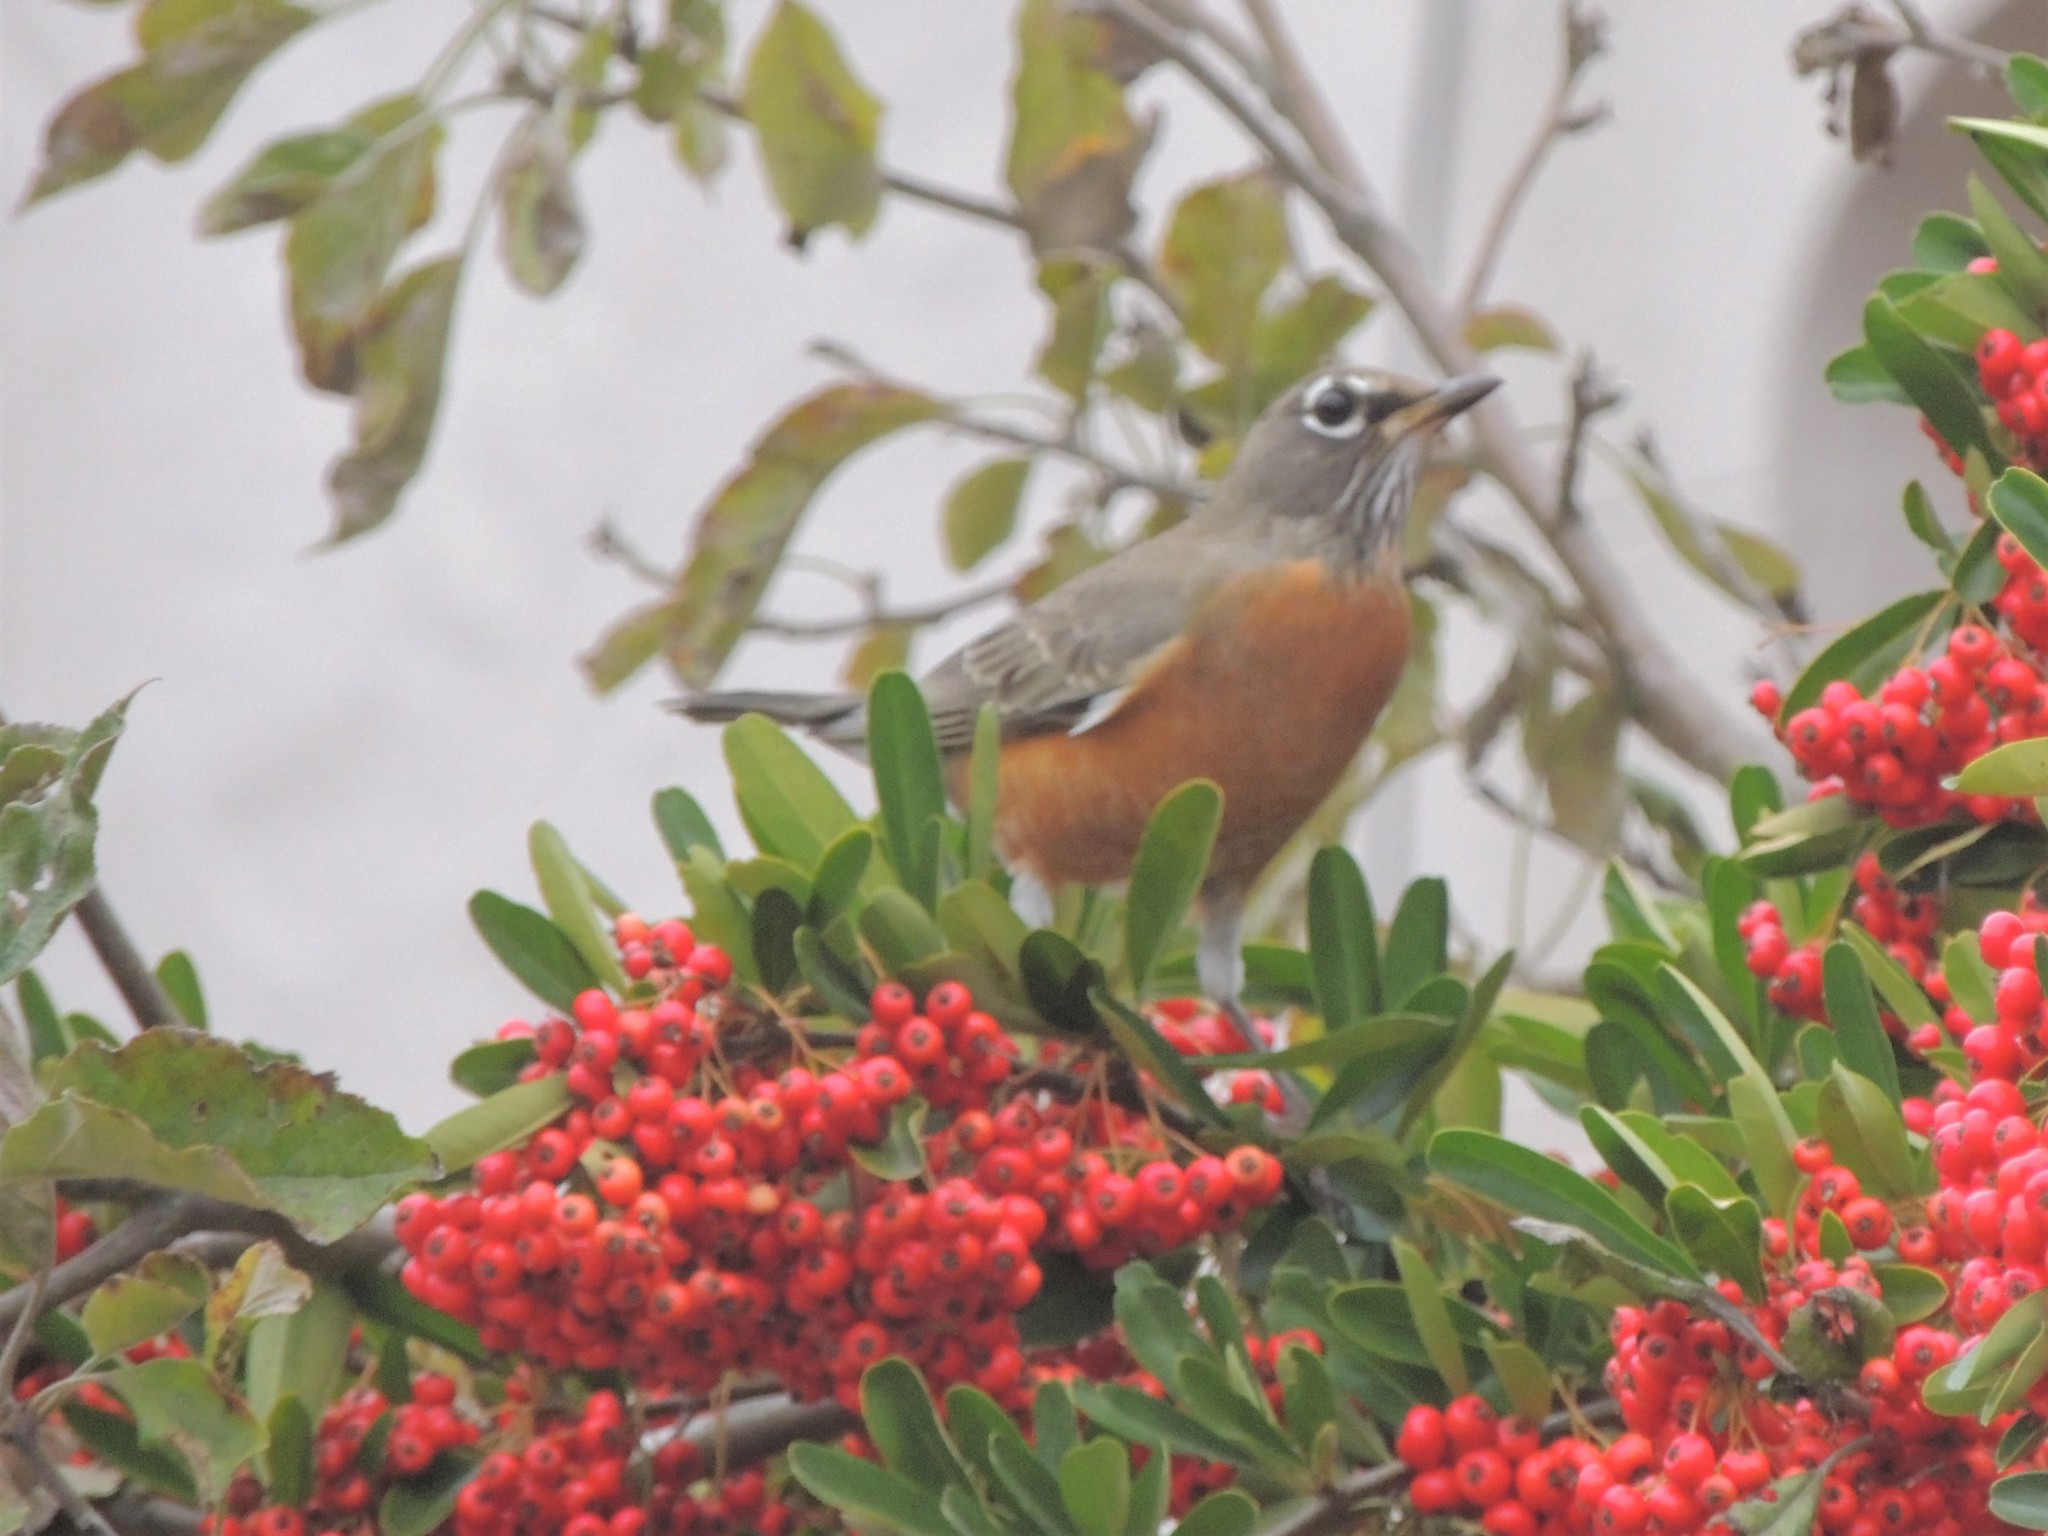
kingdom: Animalia
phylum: Chordata
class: Aves
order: Passeriformes
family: Turdidae
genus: Turdus
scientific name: Turdus migratorius
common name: American robin
